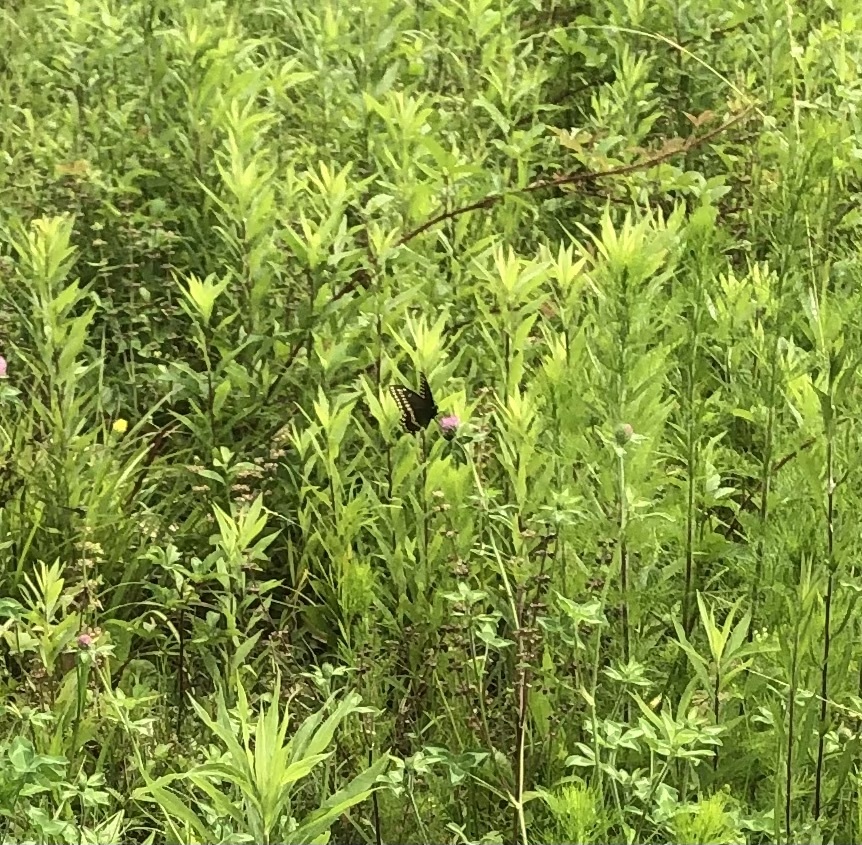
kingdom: Animalia
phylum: Arthropoda
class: Insecta
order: Lepidoptera
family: Papilionidae
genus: Papilio
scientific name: Papilio polyxenes
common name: Black swallowtail
